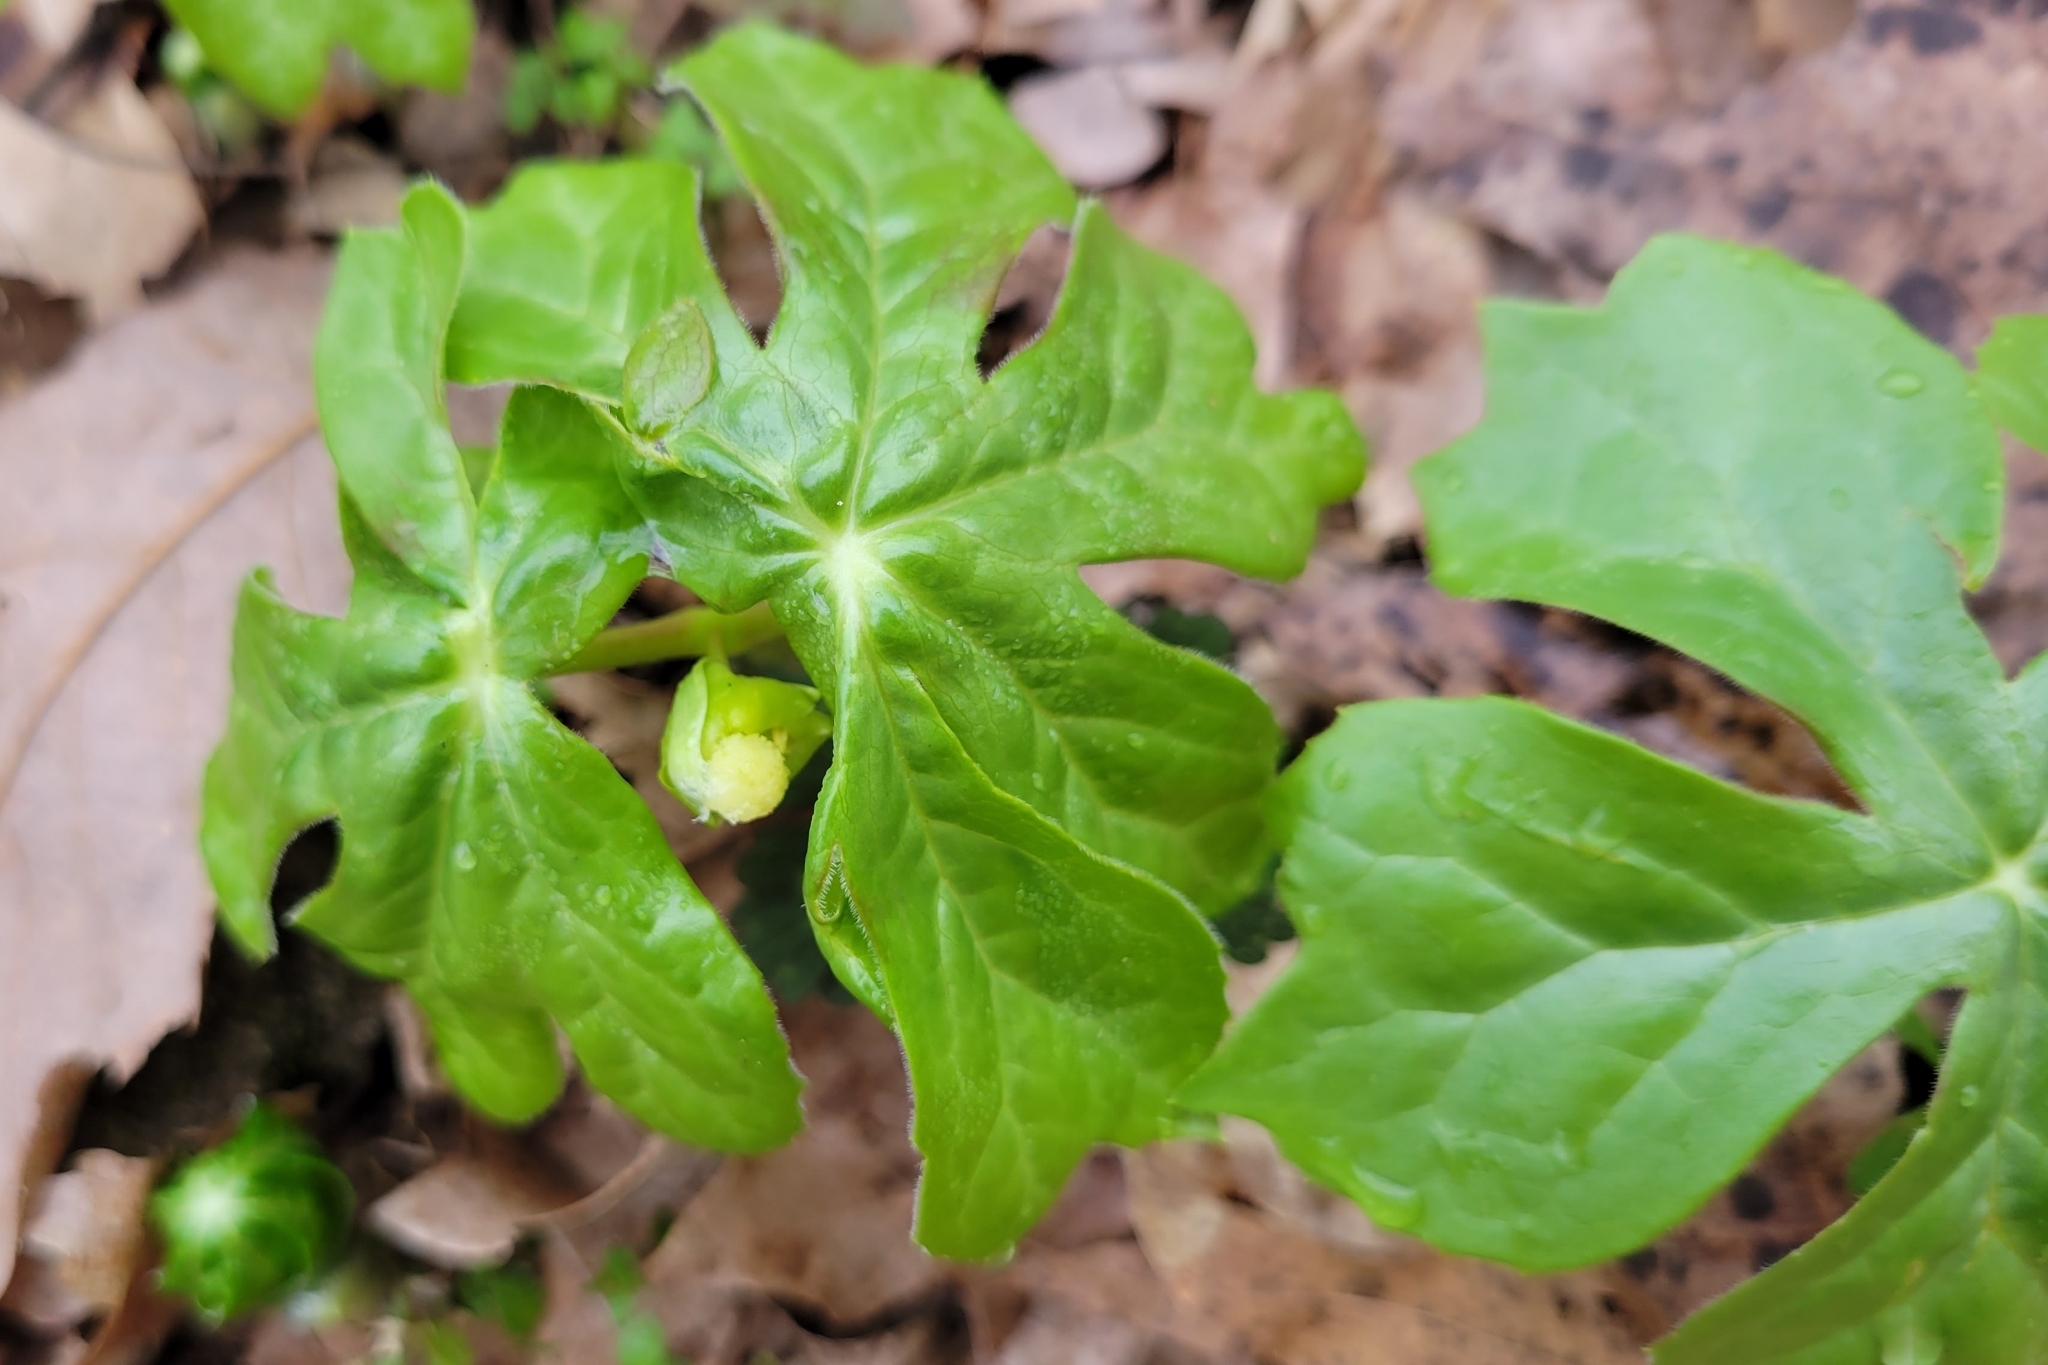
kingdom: Plantae
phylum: Tracheophyta
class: Magnoliopsida
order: Ranunculales
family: Berberidaceae
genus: Podophyllum
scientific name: Podophyllum peltatum
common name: Wild mandrake
